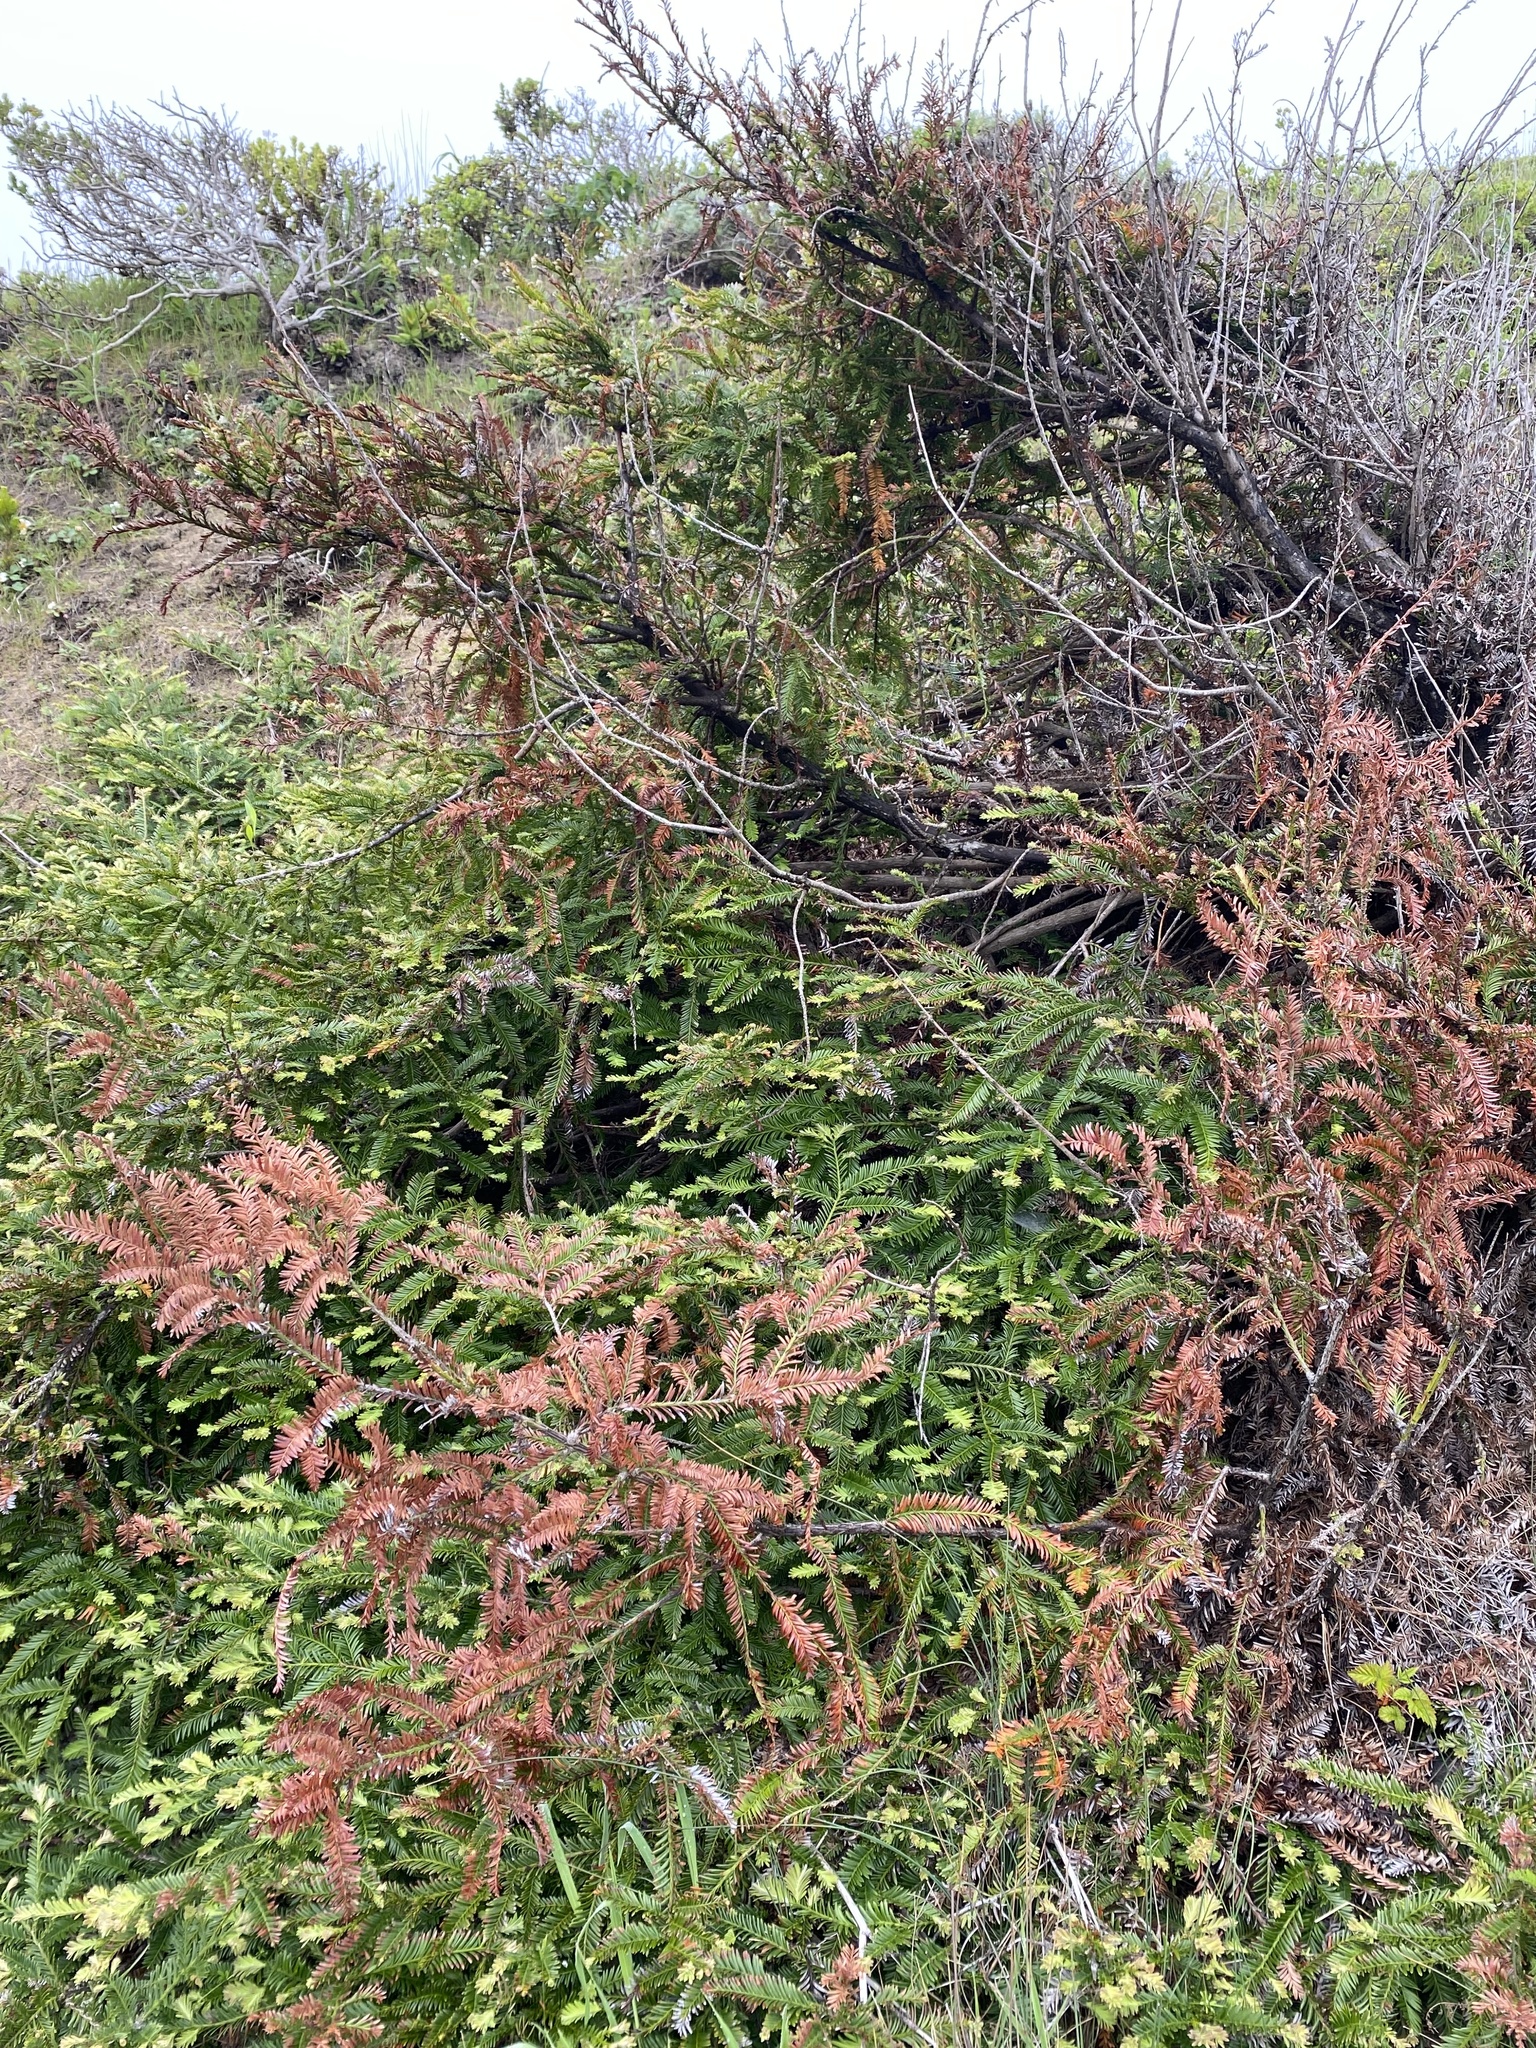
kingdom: Plantae
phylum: Tracheophyta
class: Pinopsida
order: Pinales
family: Cupressaceae
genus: Sequoia
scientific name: Sequoia sempervirens
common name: Coast redwood
